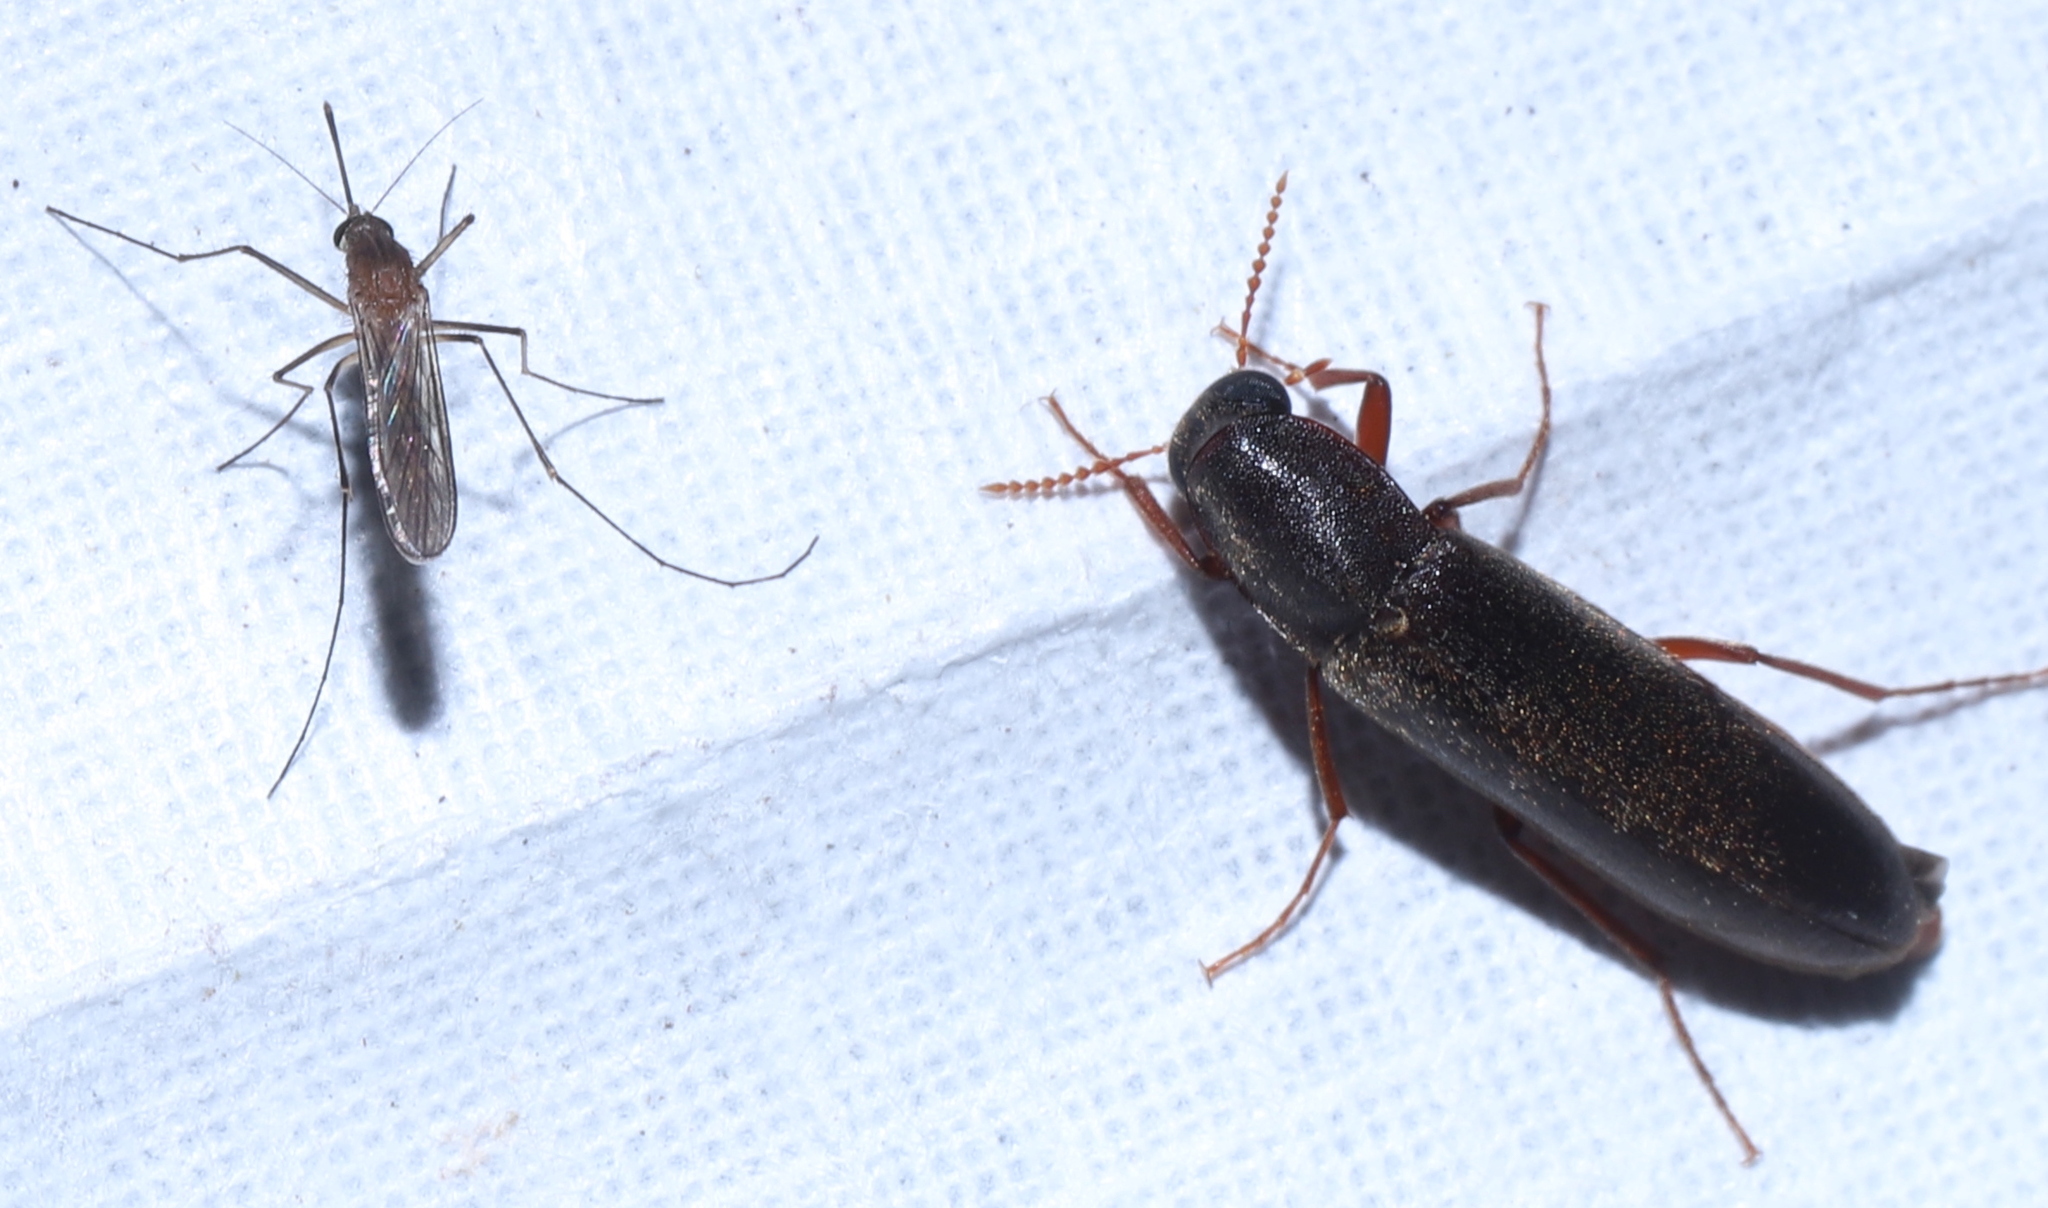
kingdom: Animalia
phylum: Arthropoda
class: Insecta
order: Coleoptera
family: Lymexylidae
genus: Melittomma
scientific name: Melittomma sericeum
